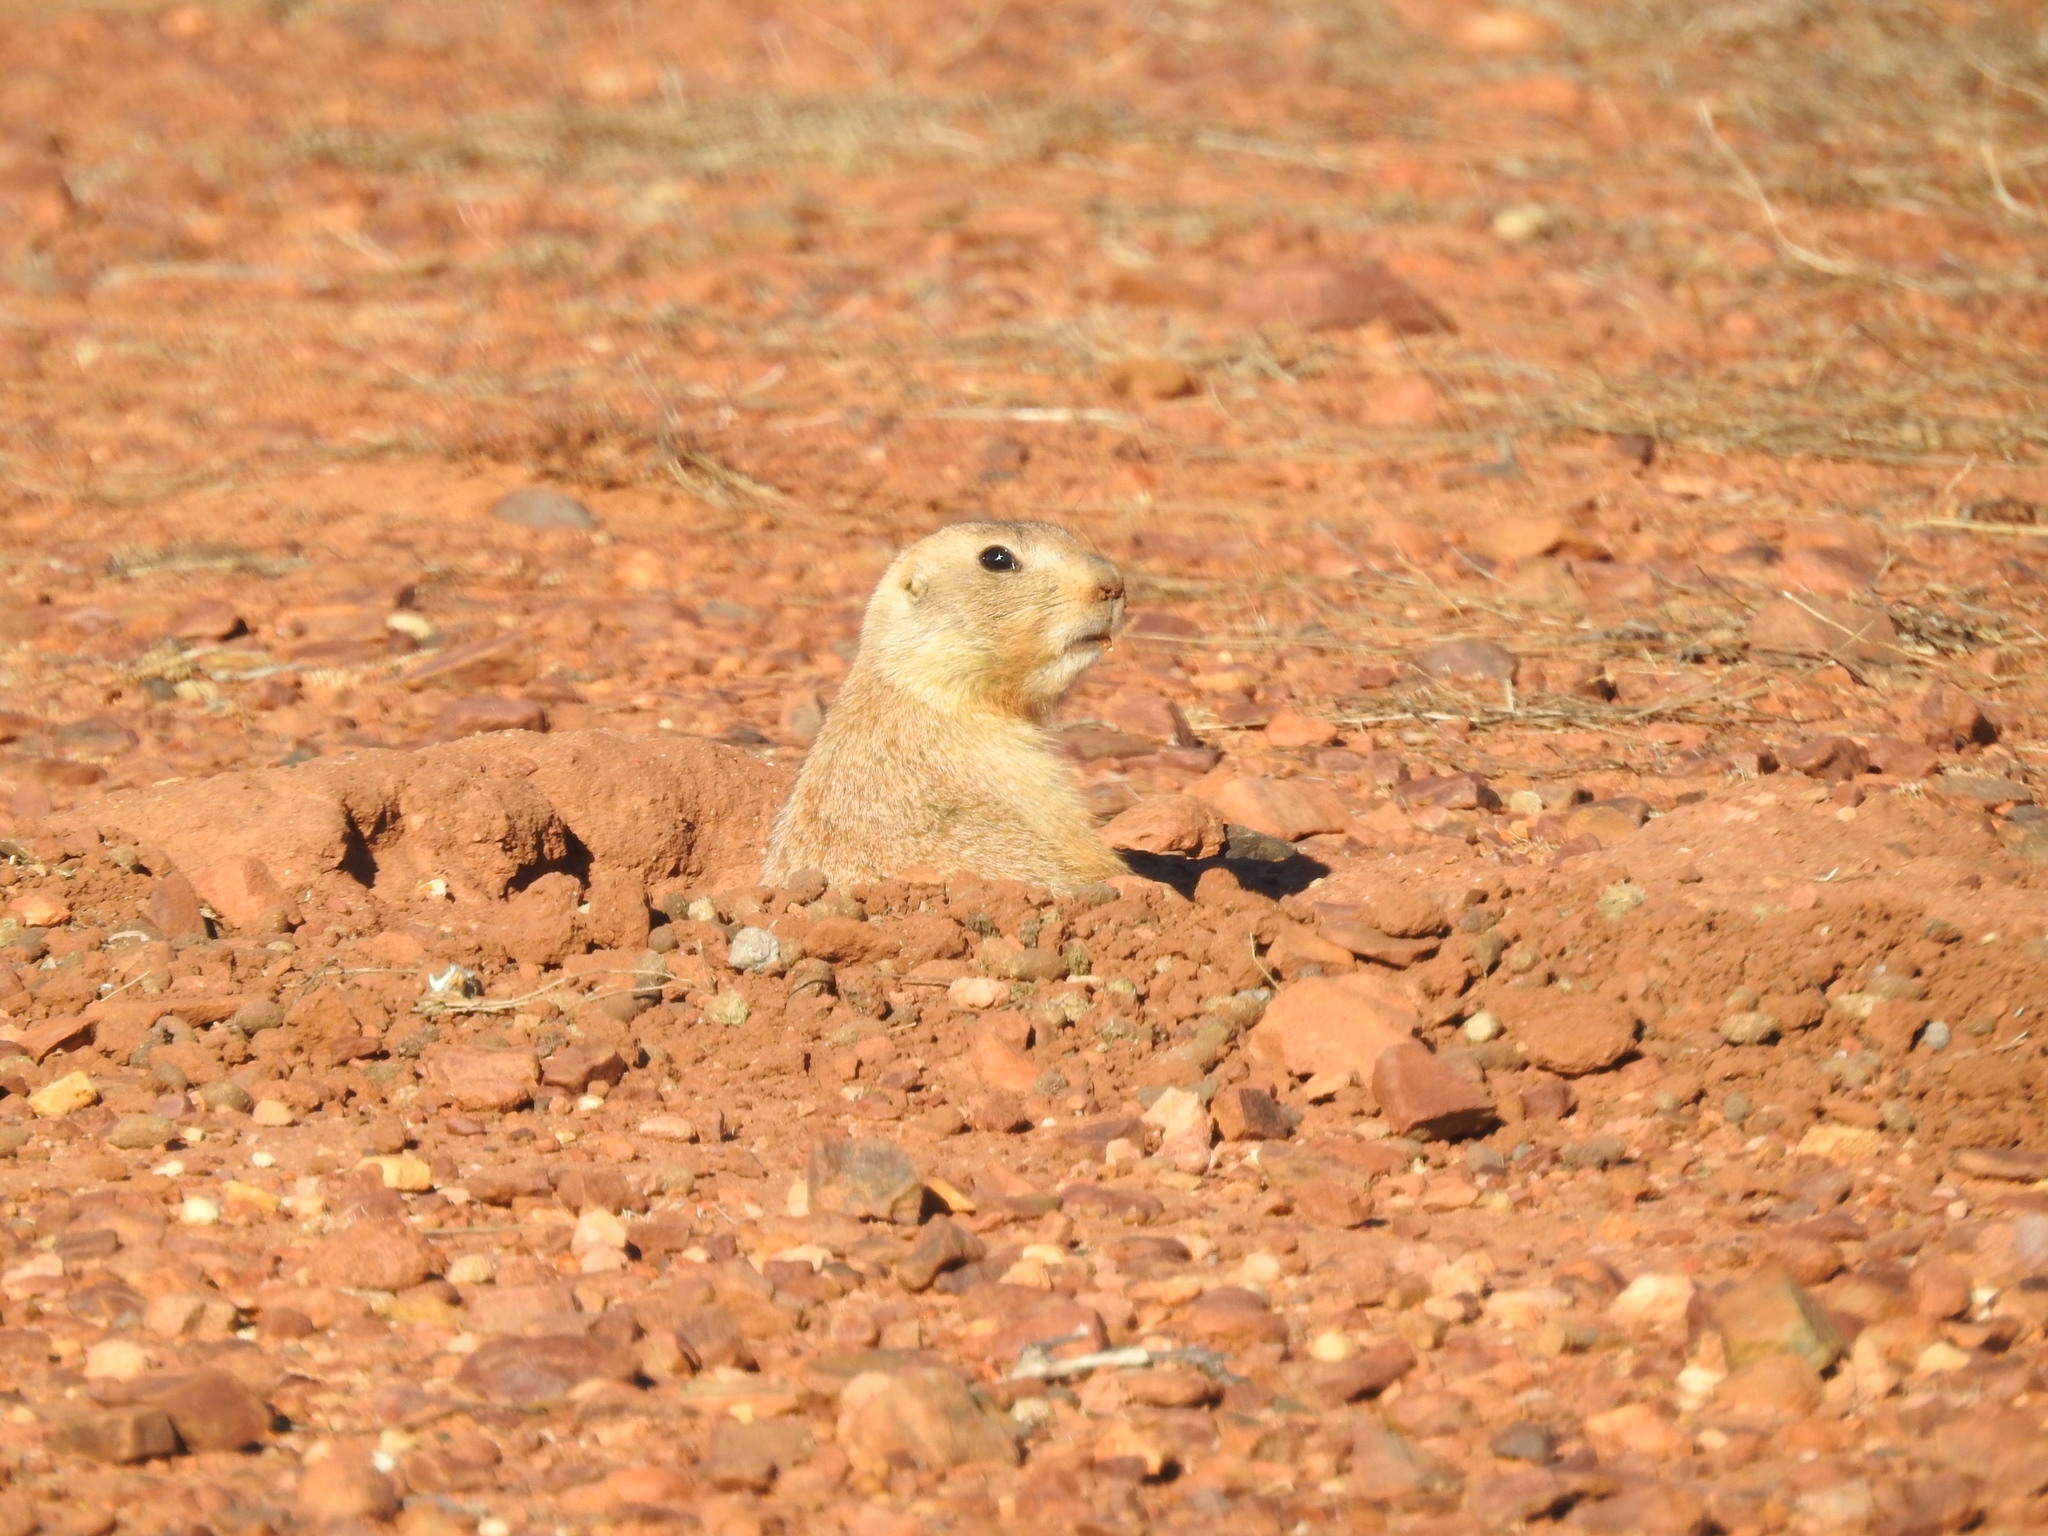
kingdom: Animalia
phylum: Chordata
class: Mammalia
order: Rodentia
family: Sciuridae
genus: Cynomys
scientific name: Cynomys ludovicianus
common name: Black-tailed prairie dog
